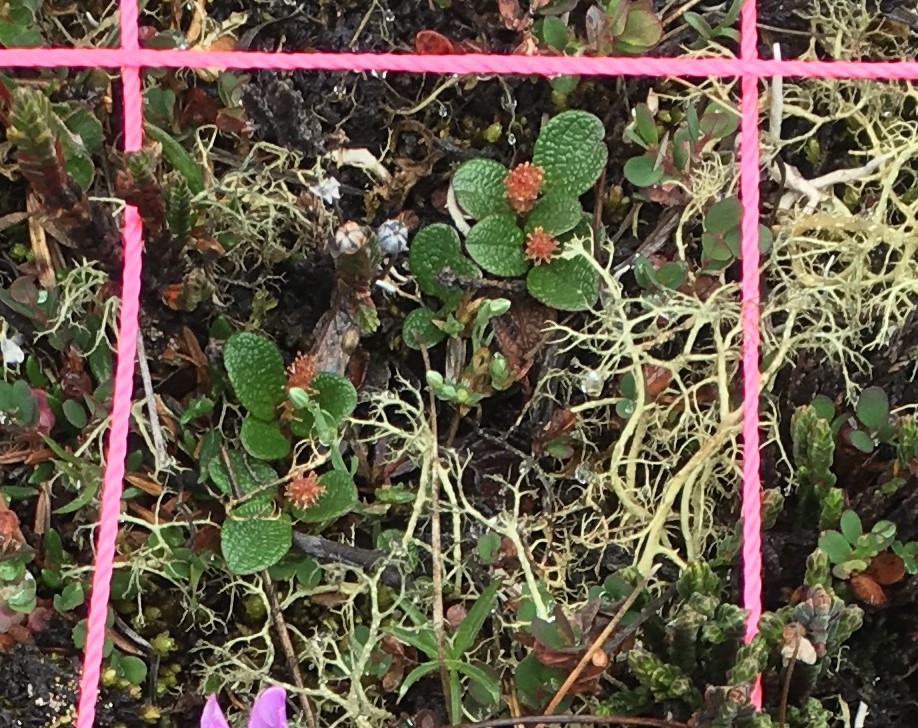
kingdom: Plantae
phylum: Tracheophyta
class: Magnoliopsida
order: Malpighiales
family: Salicaceae
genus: Salix
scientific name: Salix reticulata
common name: Net-leaved willow
